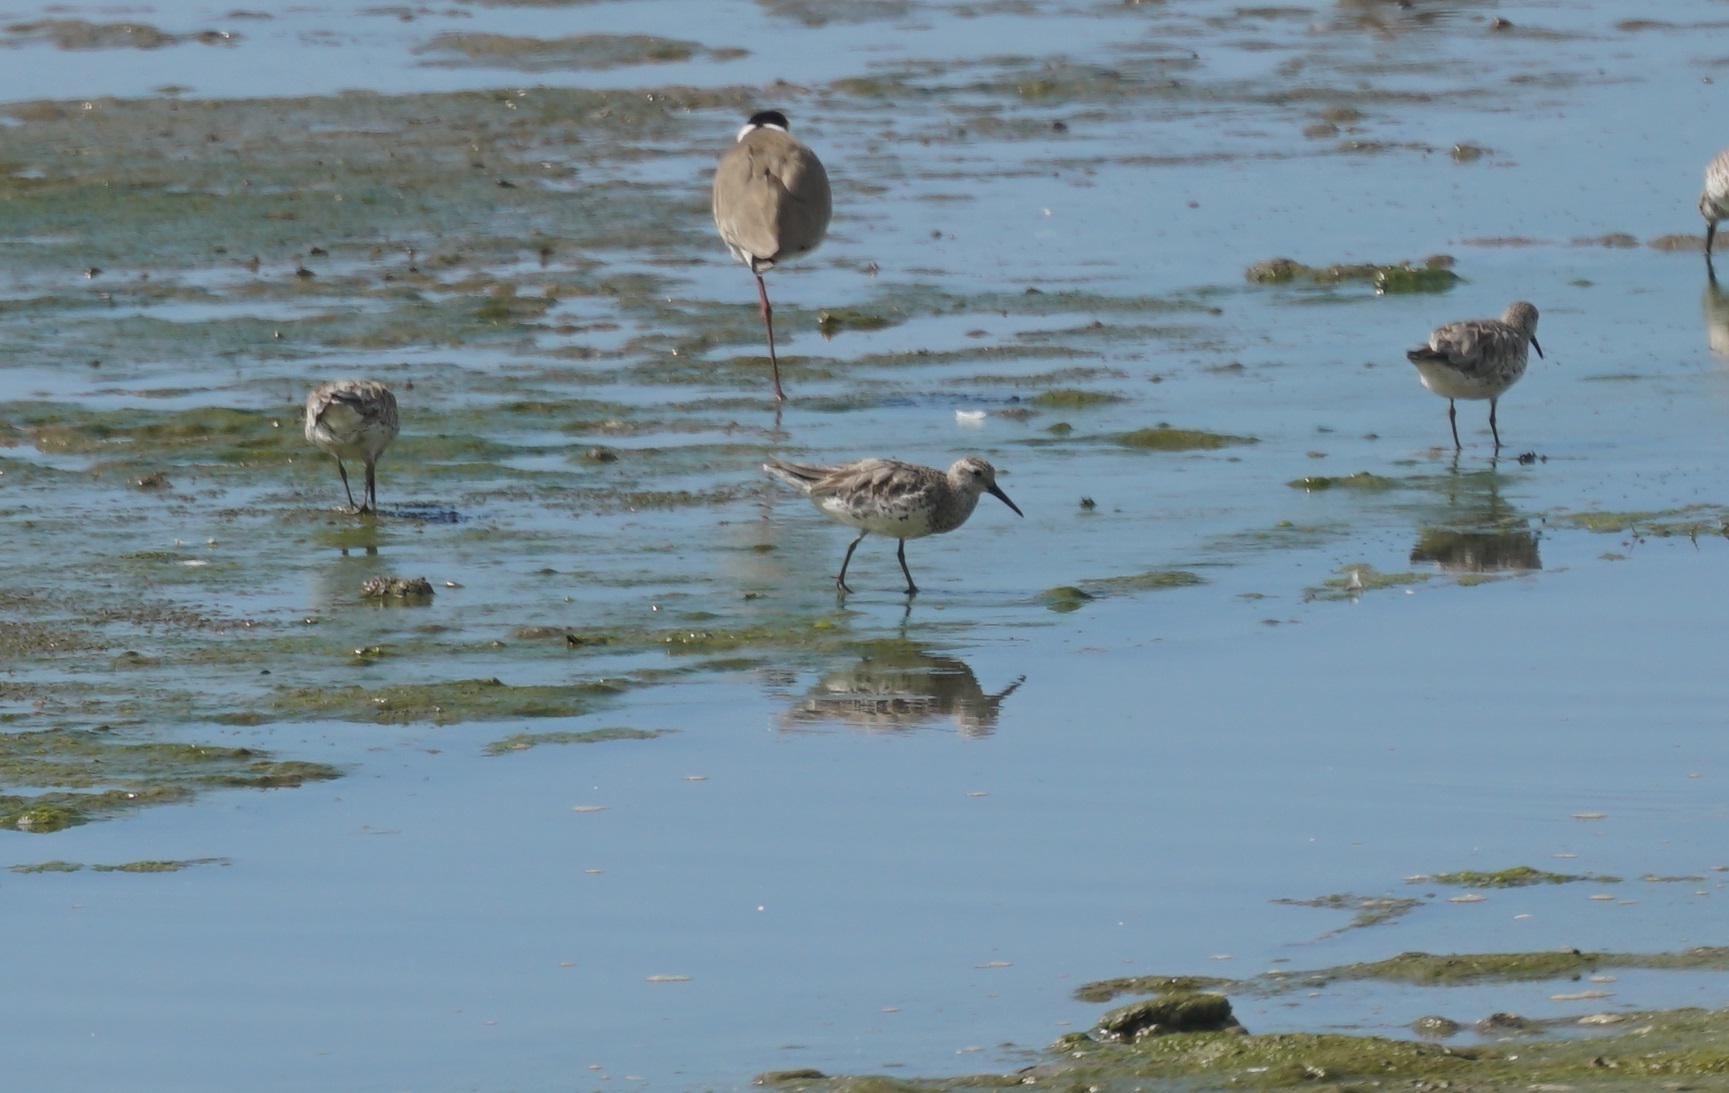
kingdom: Animalia
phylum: Chordata
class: Aves
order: Charadriiformes
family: Scolopacidae
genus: Calidris
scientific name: Calidris tenuirostris
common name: Great knot
